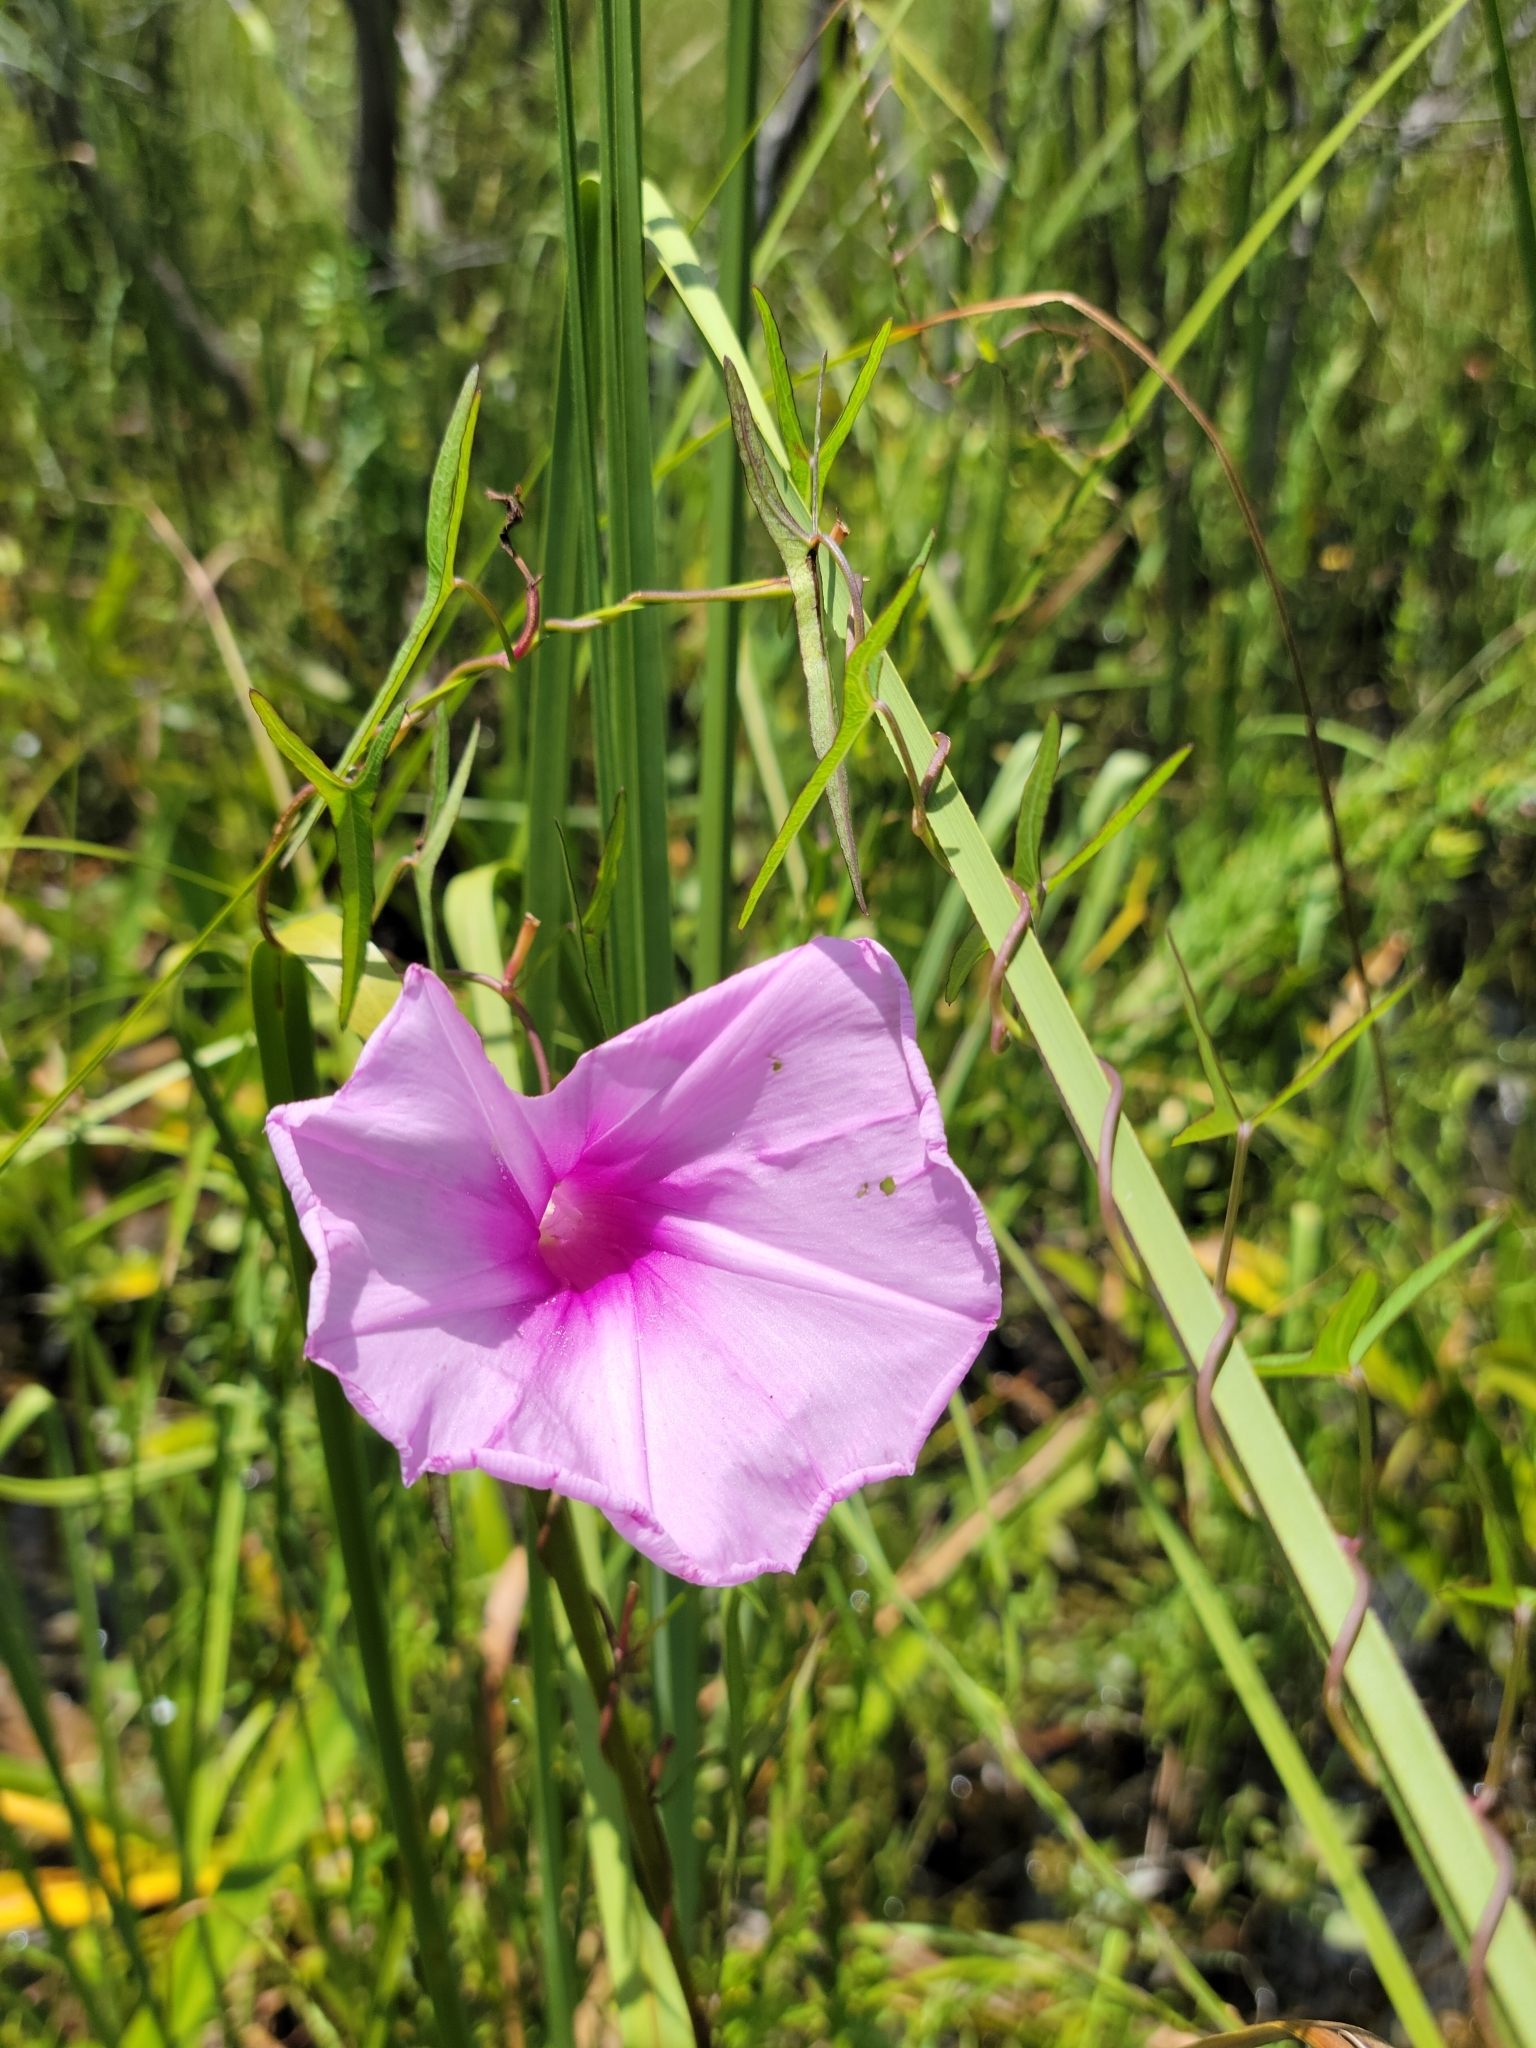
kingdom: Plantae
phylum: Tracheophyta
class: Magnoliopsida
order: Solanales
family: Convolvulaceae
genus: Ipomoea
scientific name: Ipomoea sagittata
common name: Saltmarsh morning glory
